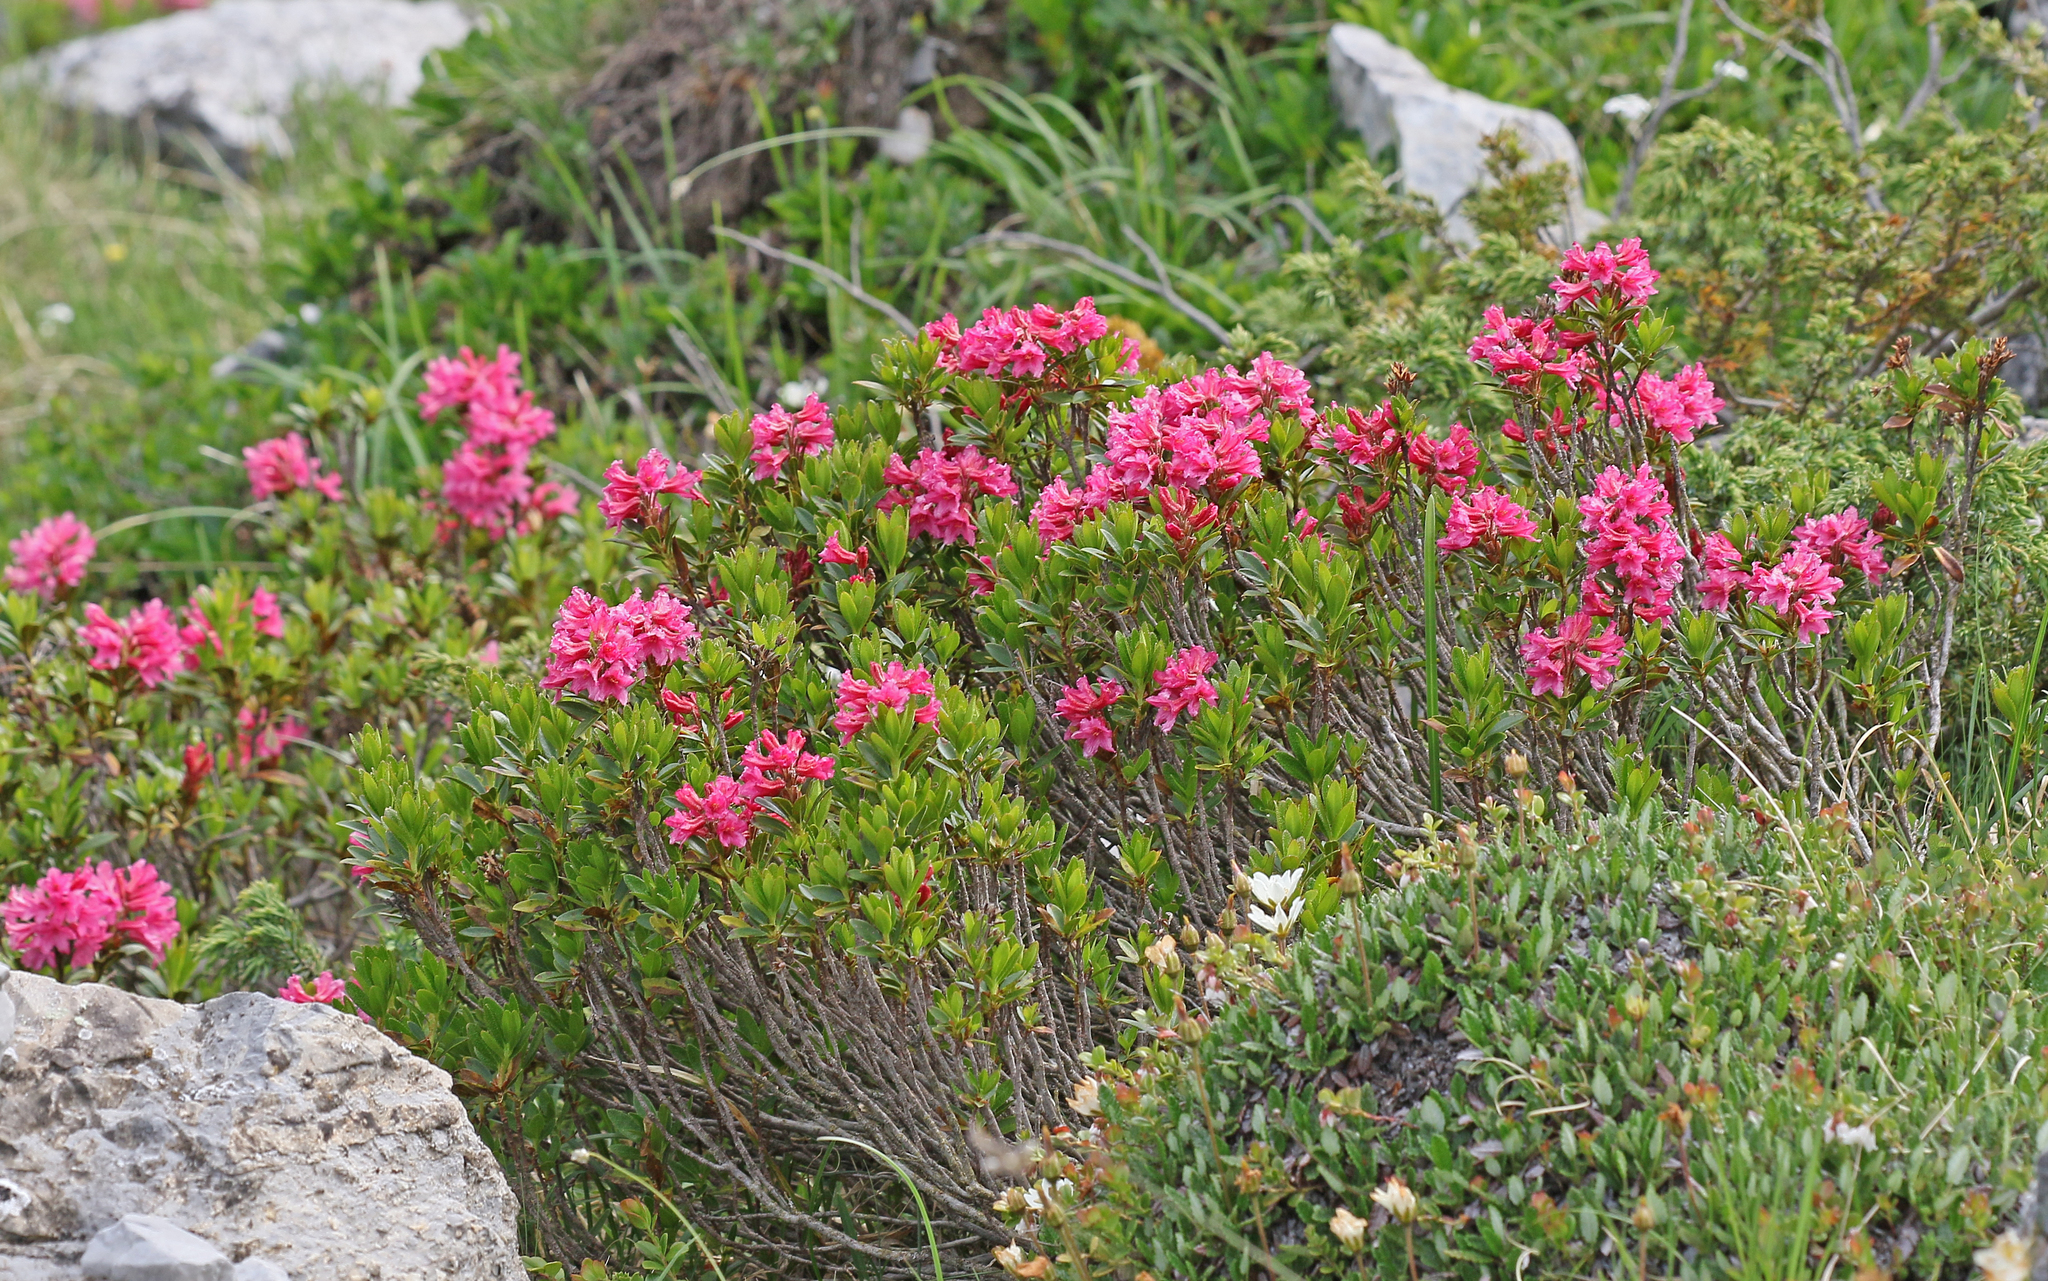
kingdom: Plantae
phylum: Tracheophyta
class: Magnoliopsida
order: Ericales
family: Ericaceae
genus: Rhododendron
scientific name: Rhododendron ferrugineum
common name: Alpenrose
